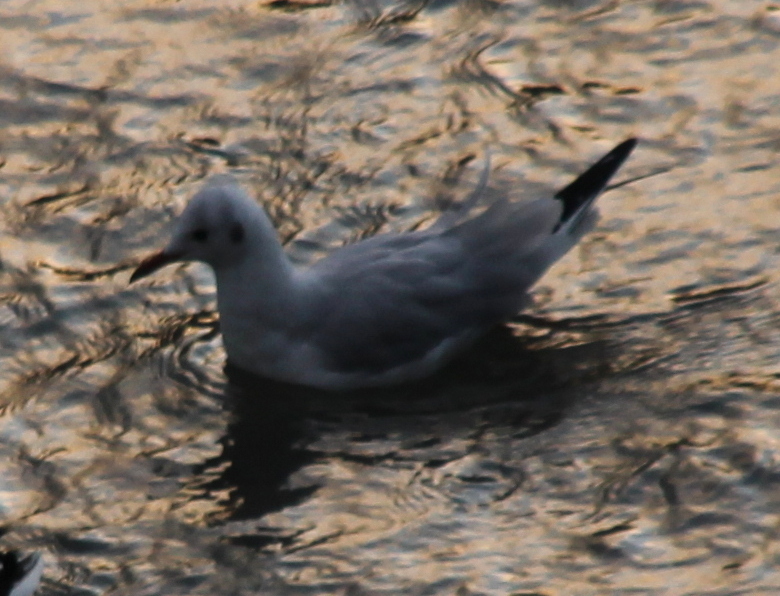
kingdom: Animalia
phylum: Chordata
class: Aves
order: Charadriiformes
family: Laridae
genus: Chroicocephalus
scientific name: Chroicocephalus ridibundus
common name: Black-headed gull
